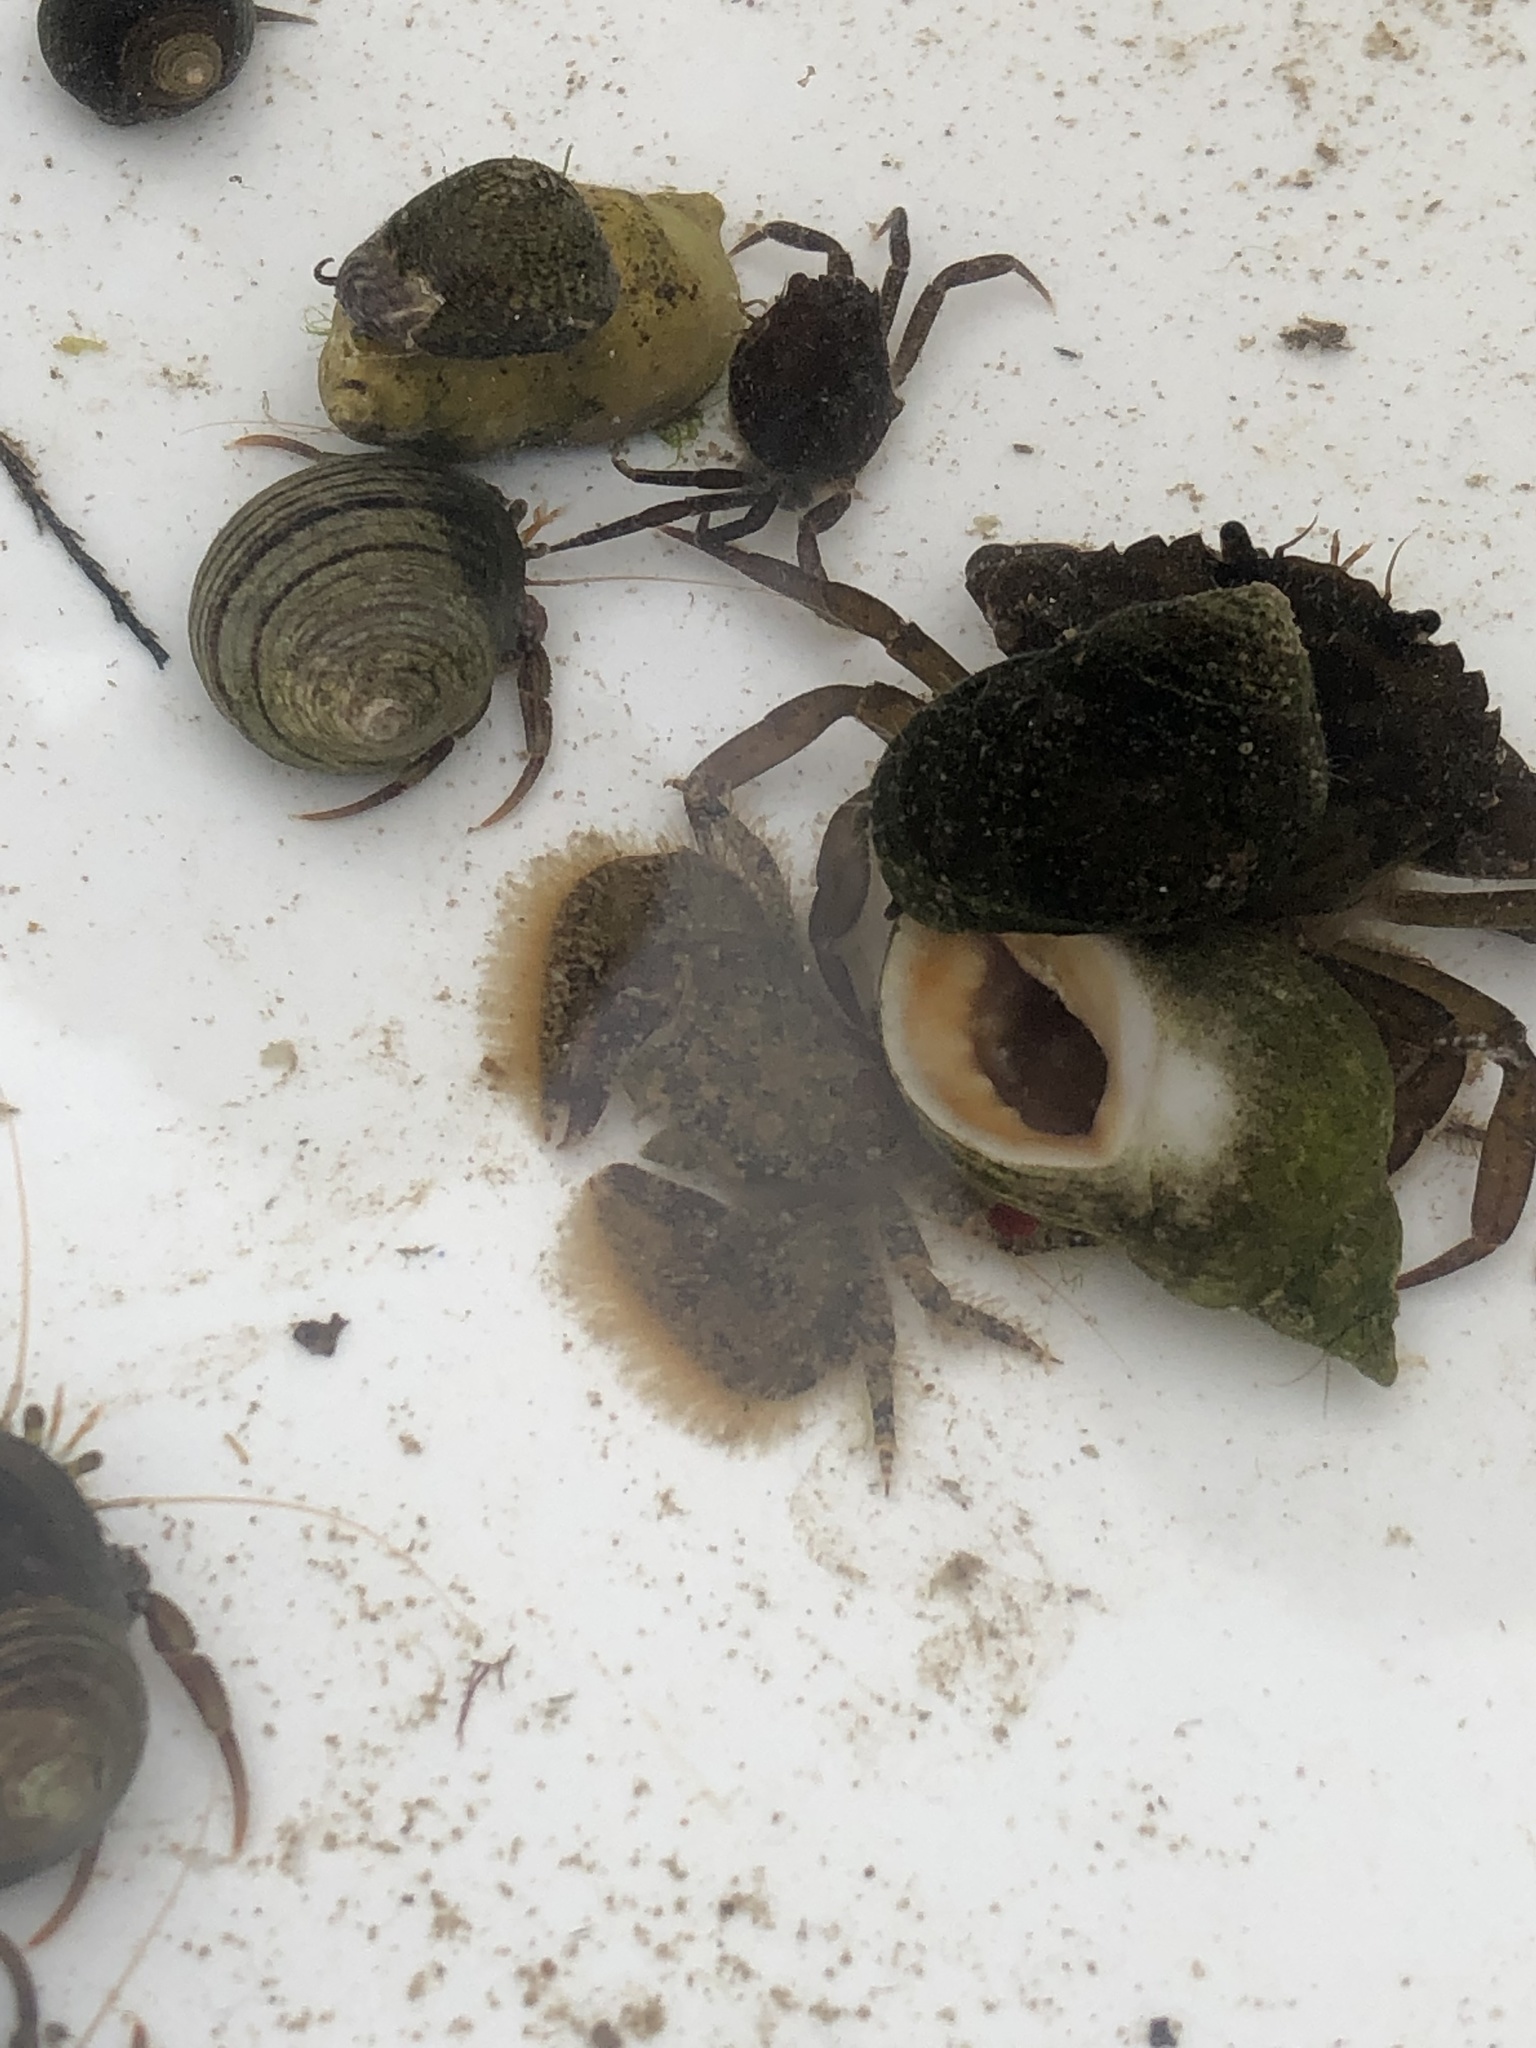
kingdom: Animalia
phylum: Arthropoda
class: Malacostraca
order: Decapoda
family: Porcellanidae
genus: Porcellana
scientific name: Porcellana platycheles
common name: Porcelain crab
